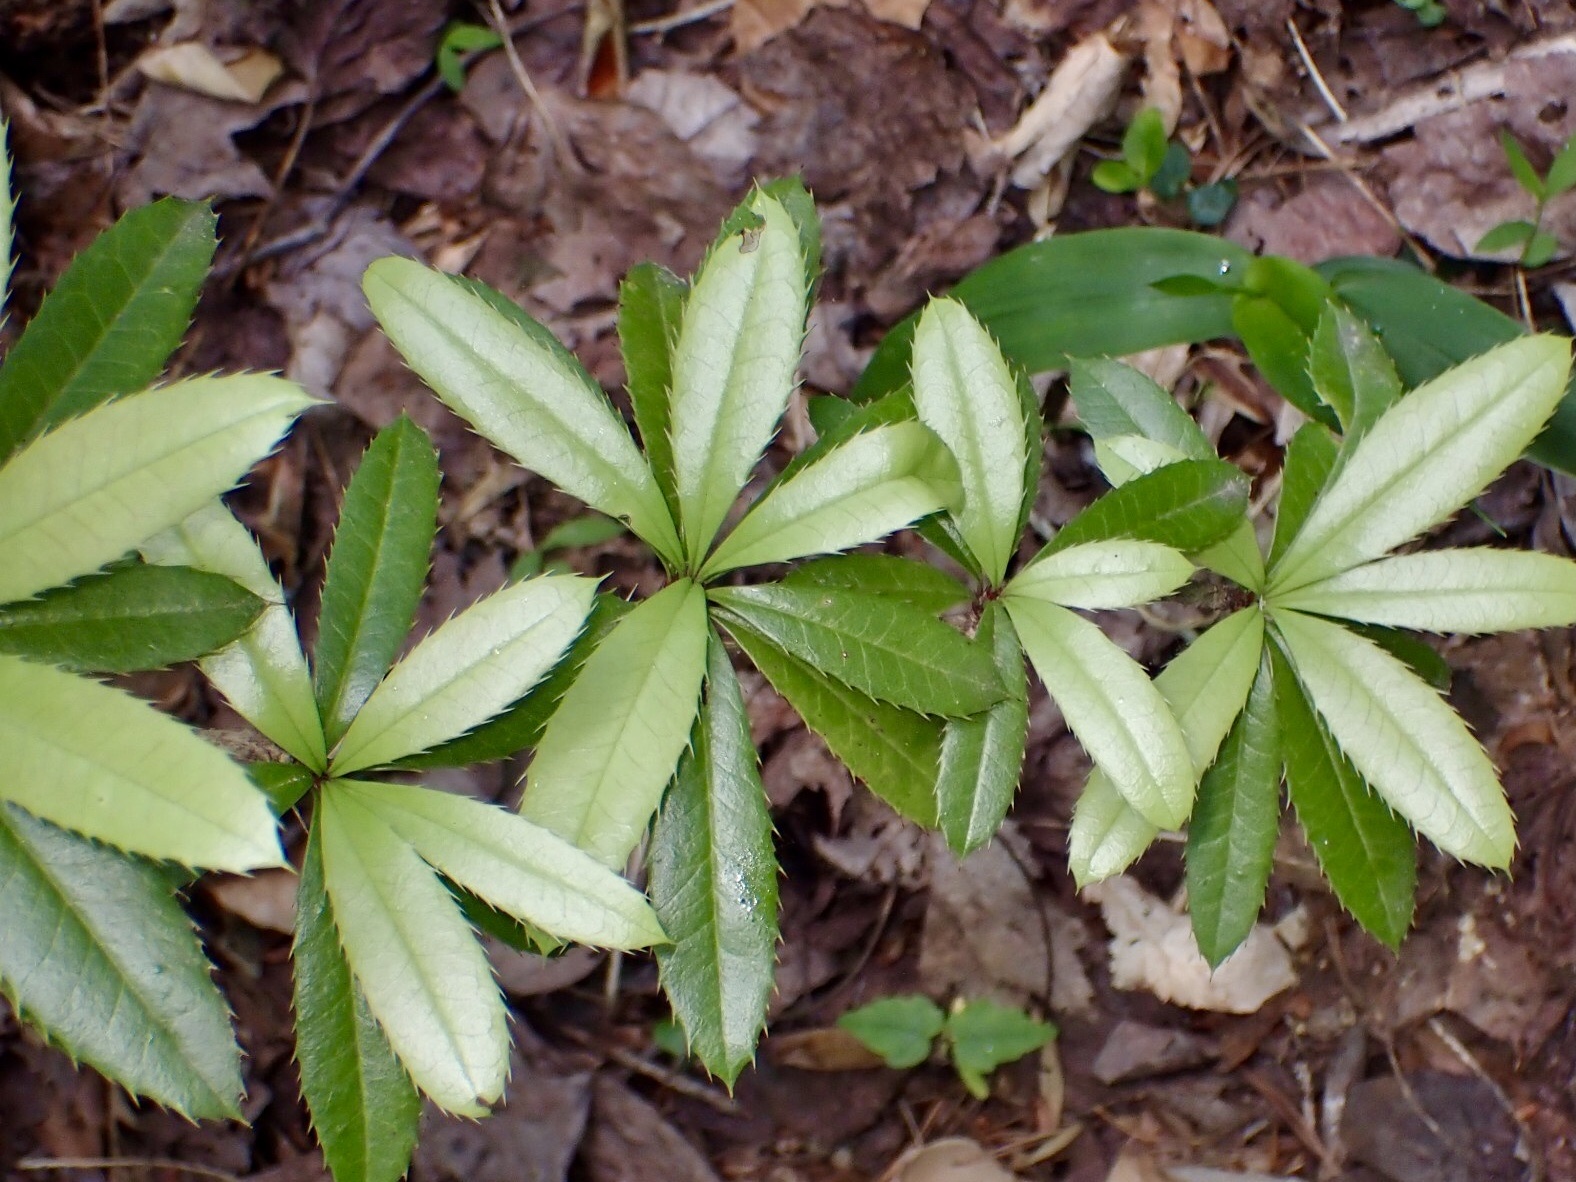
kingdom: Plantae
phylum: Tracheophyta
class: Magnoliopsida
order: Ranunculales
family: Berberidaceae
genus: Berberis
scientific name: Berberis julianae
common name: Wintergreen barberry
